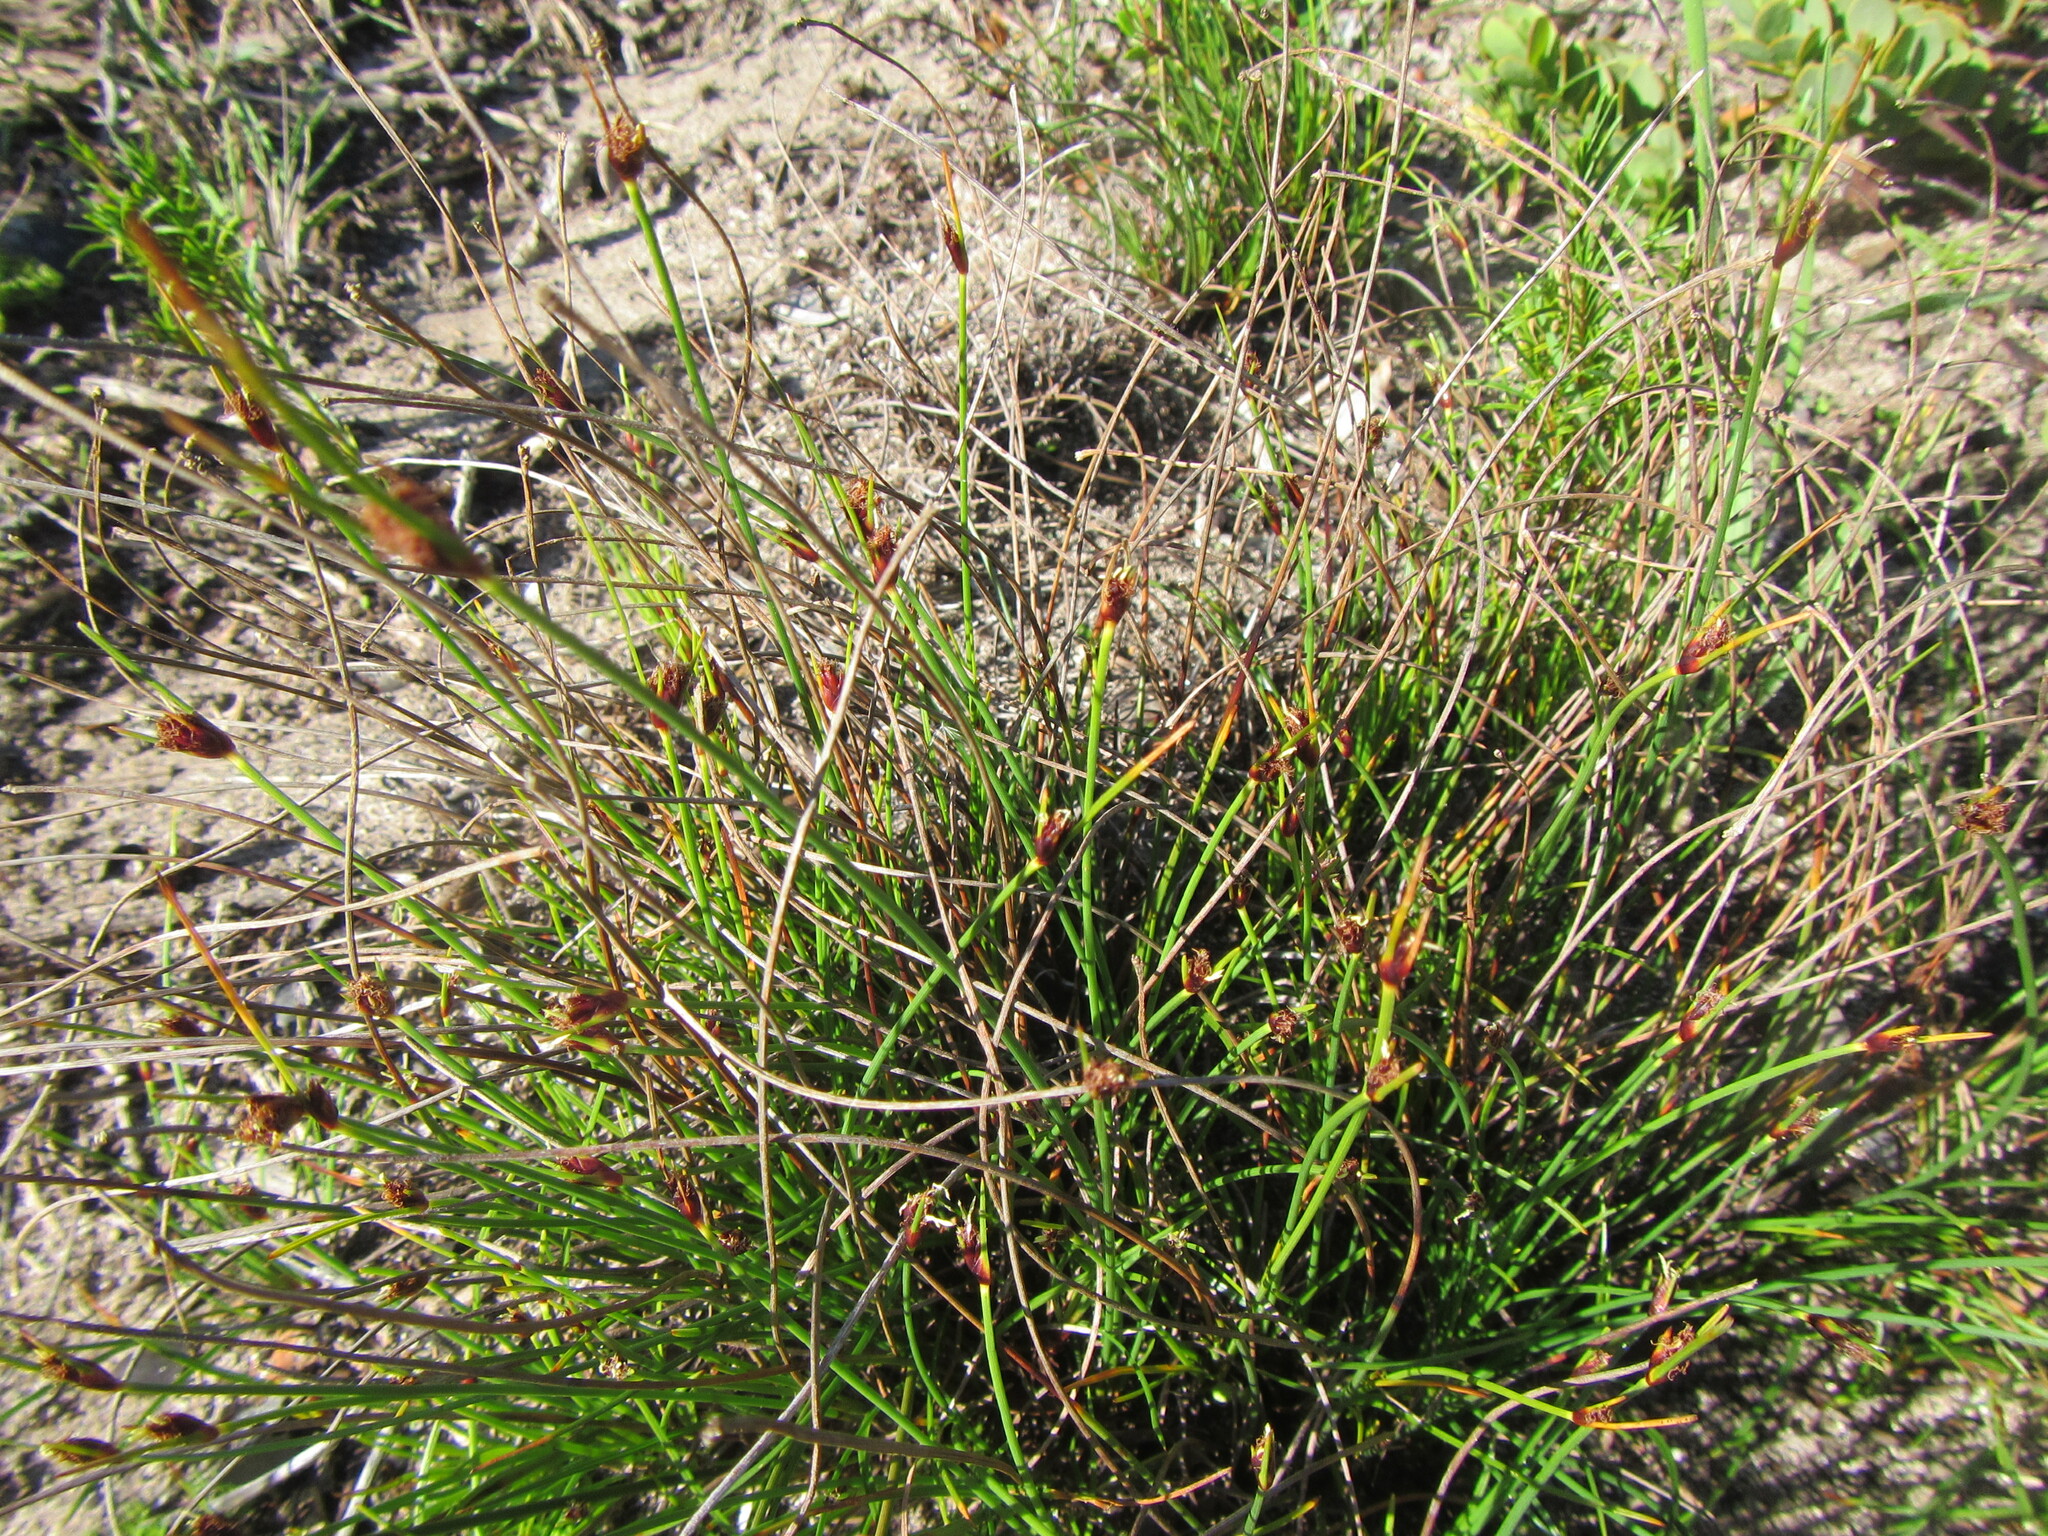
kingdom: Plantae
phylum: Tracheophyta
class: Liliopsida
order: Poales
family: Cyperaceae
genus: Ficinia
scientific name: Ficinia indica
